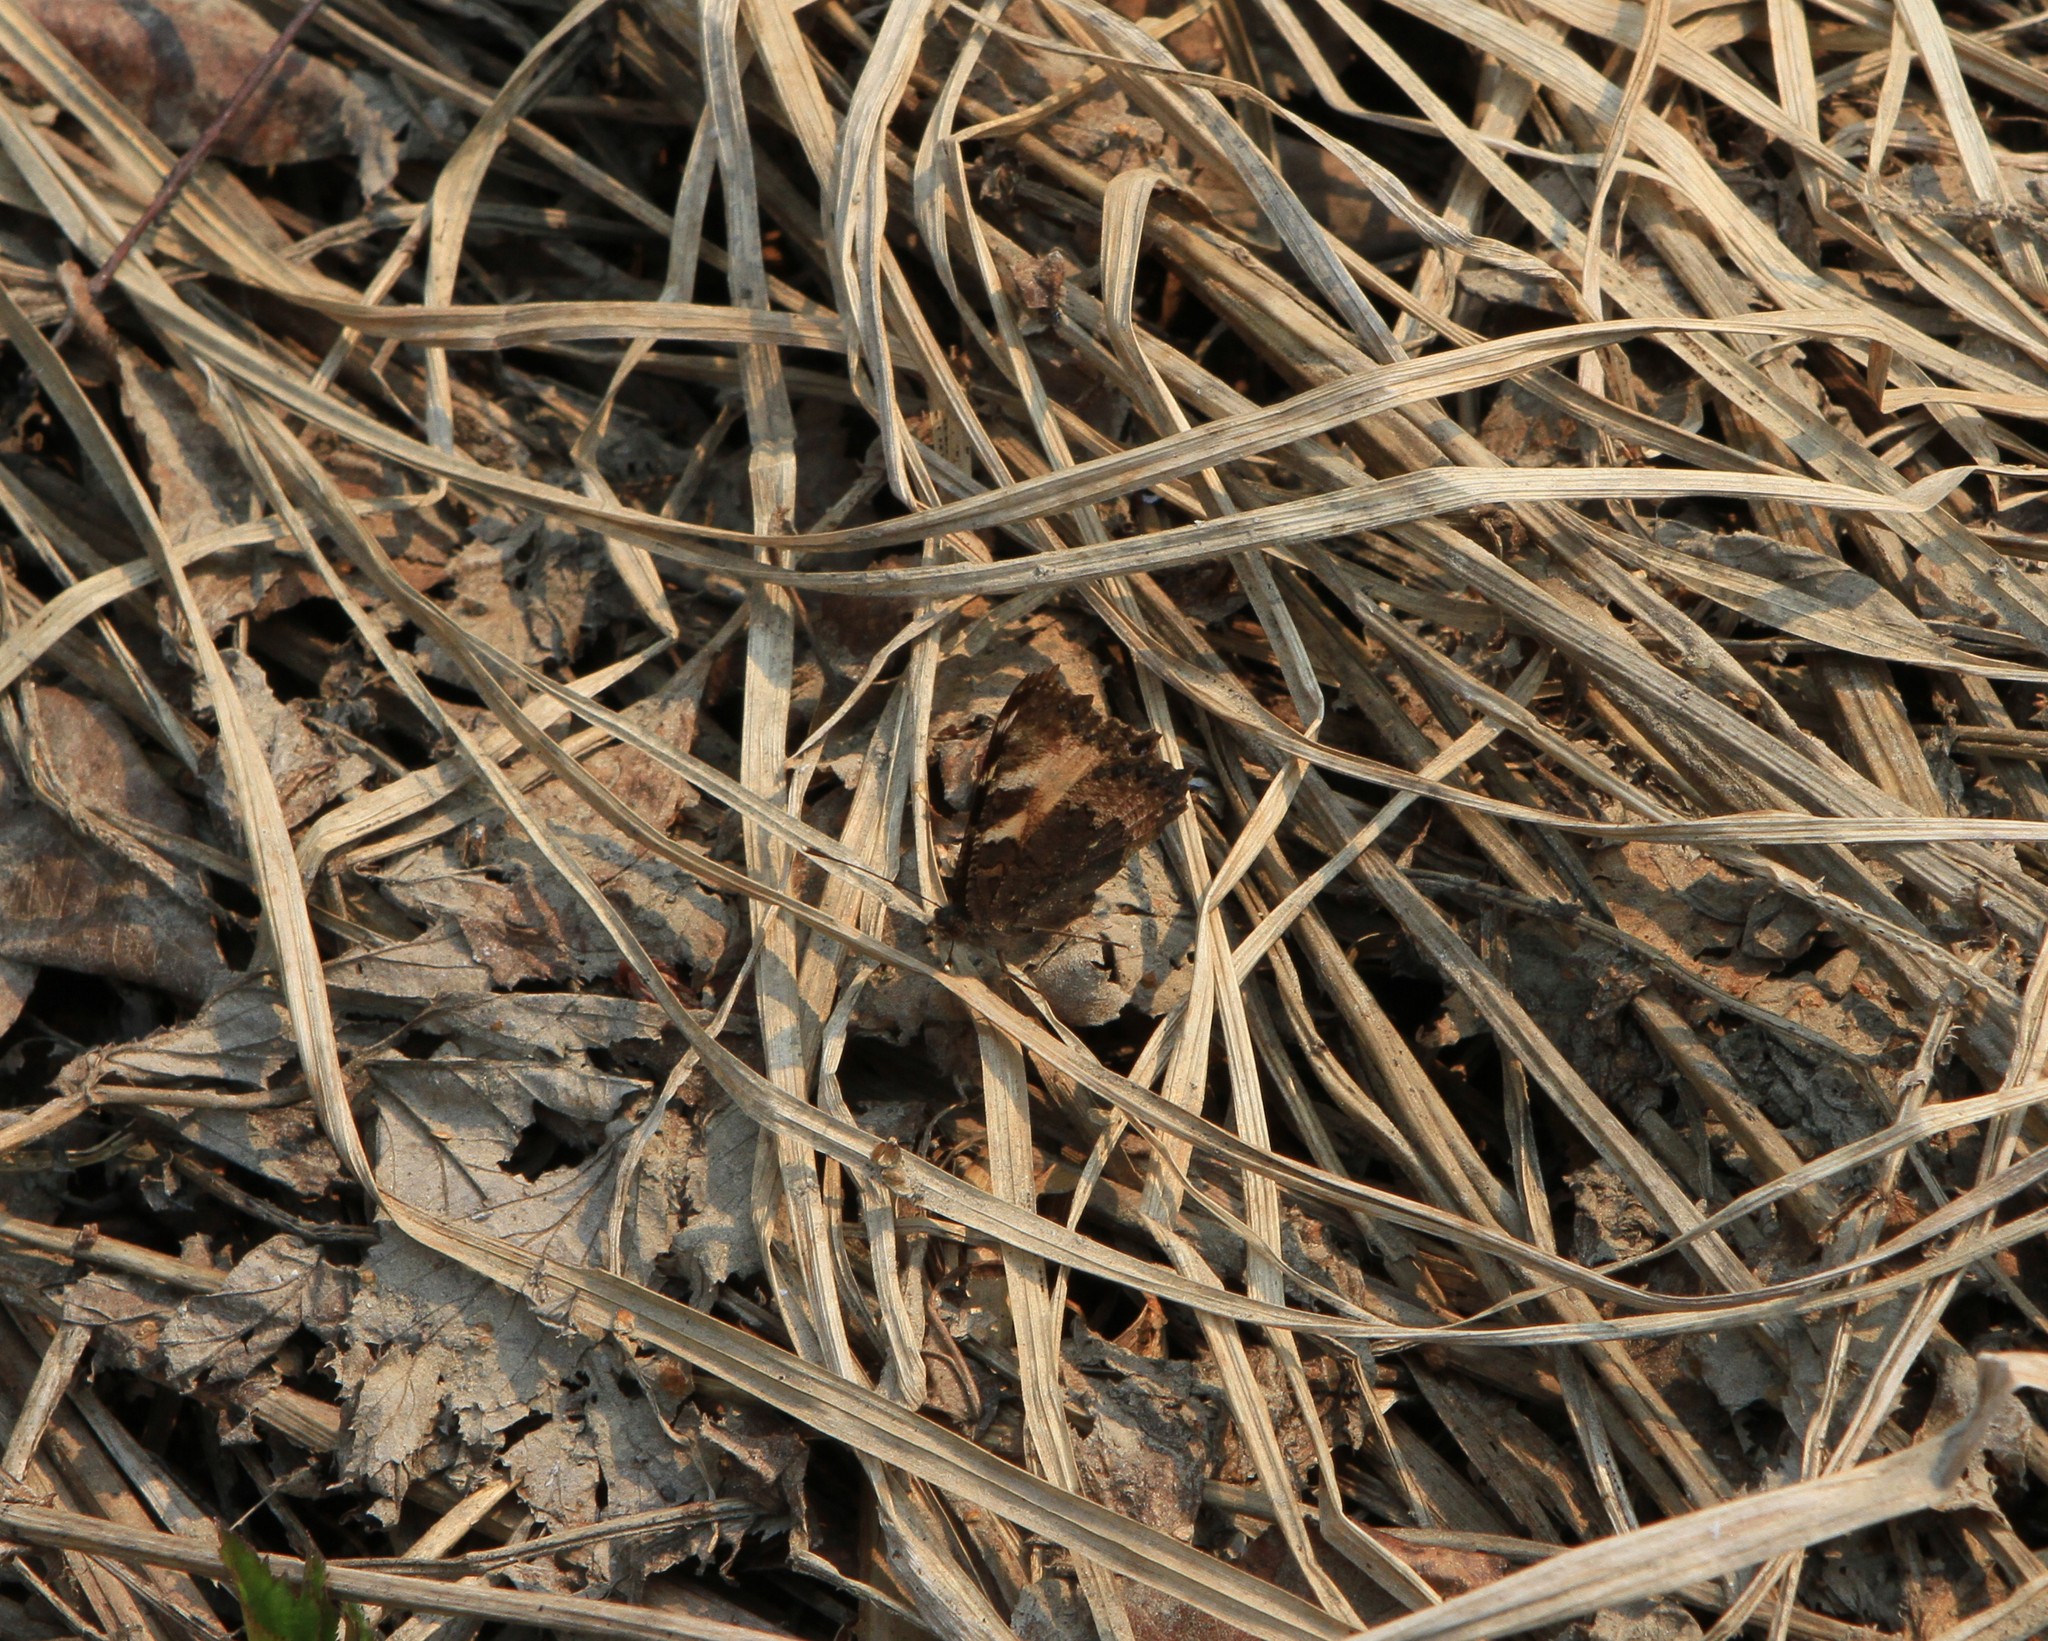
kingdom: Animalia
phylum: Arthropoda
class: Insecta
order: Lepidoptera
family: Nymphalidae
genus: Aglais
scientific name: Aglais urticae
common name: Small tortoiseshell
